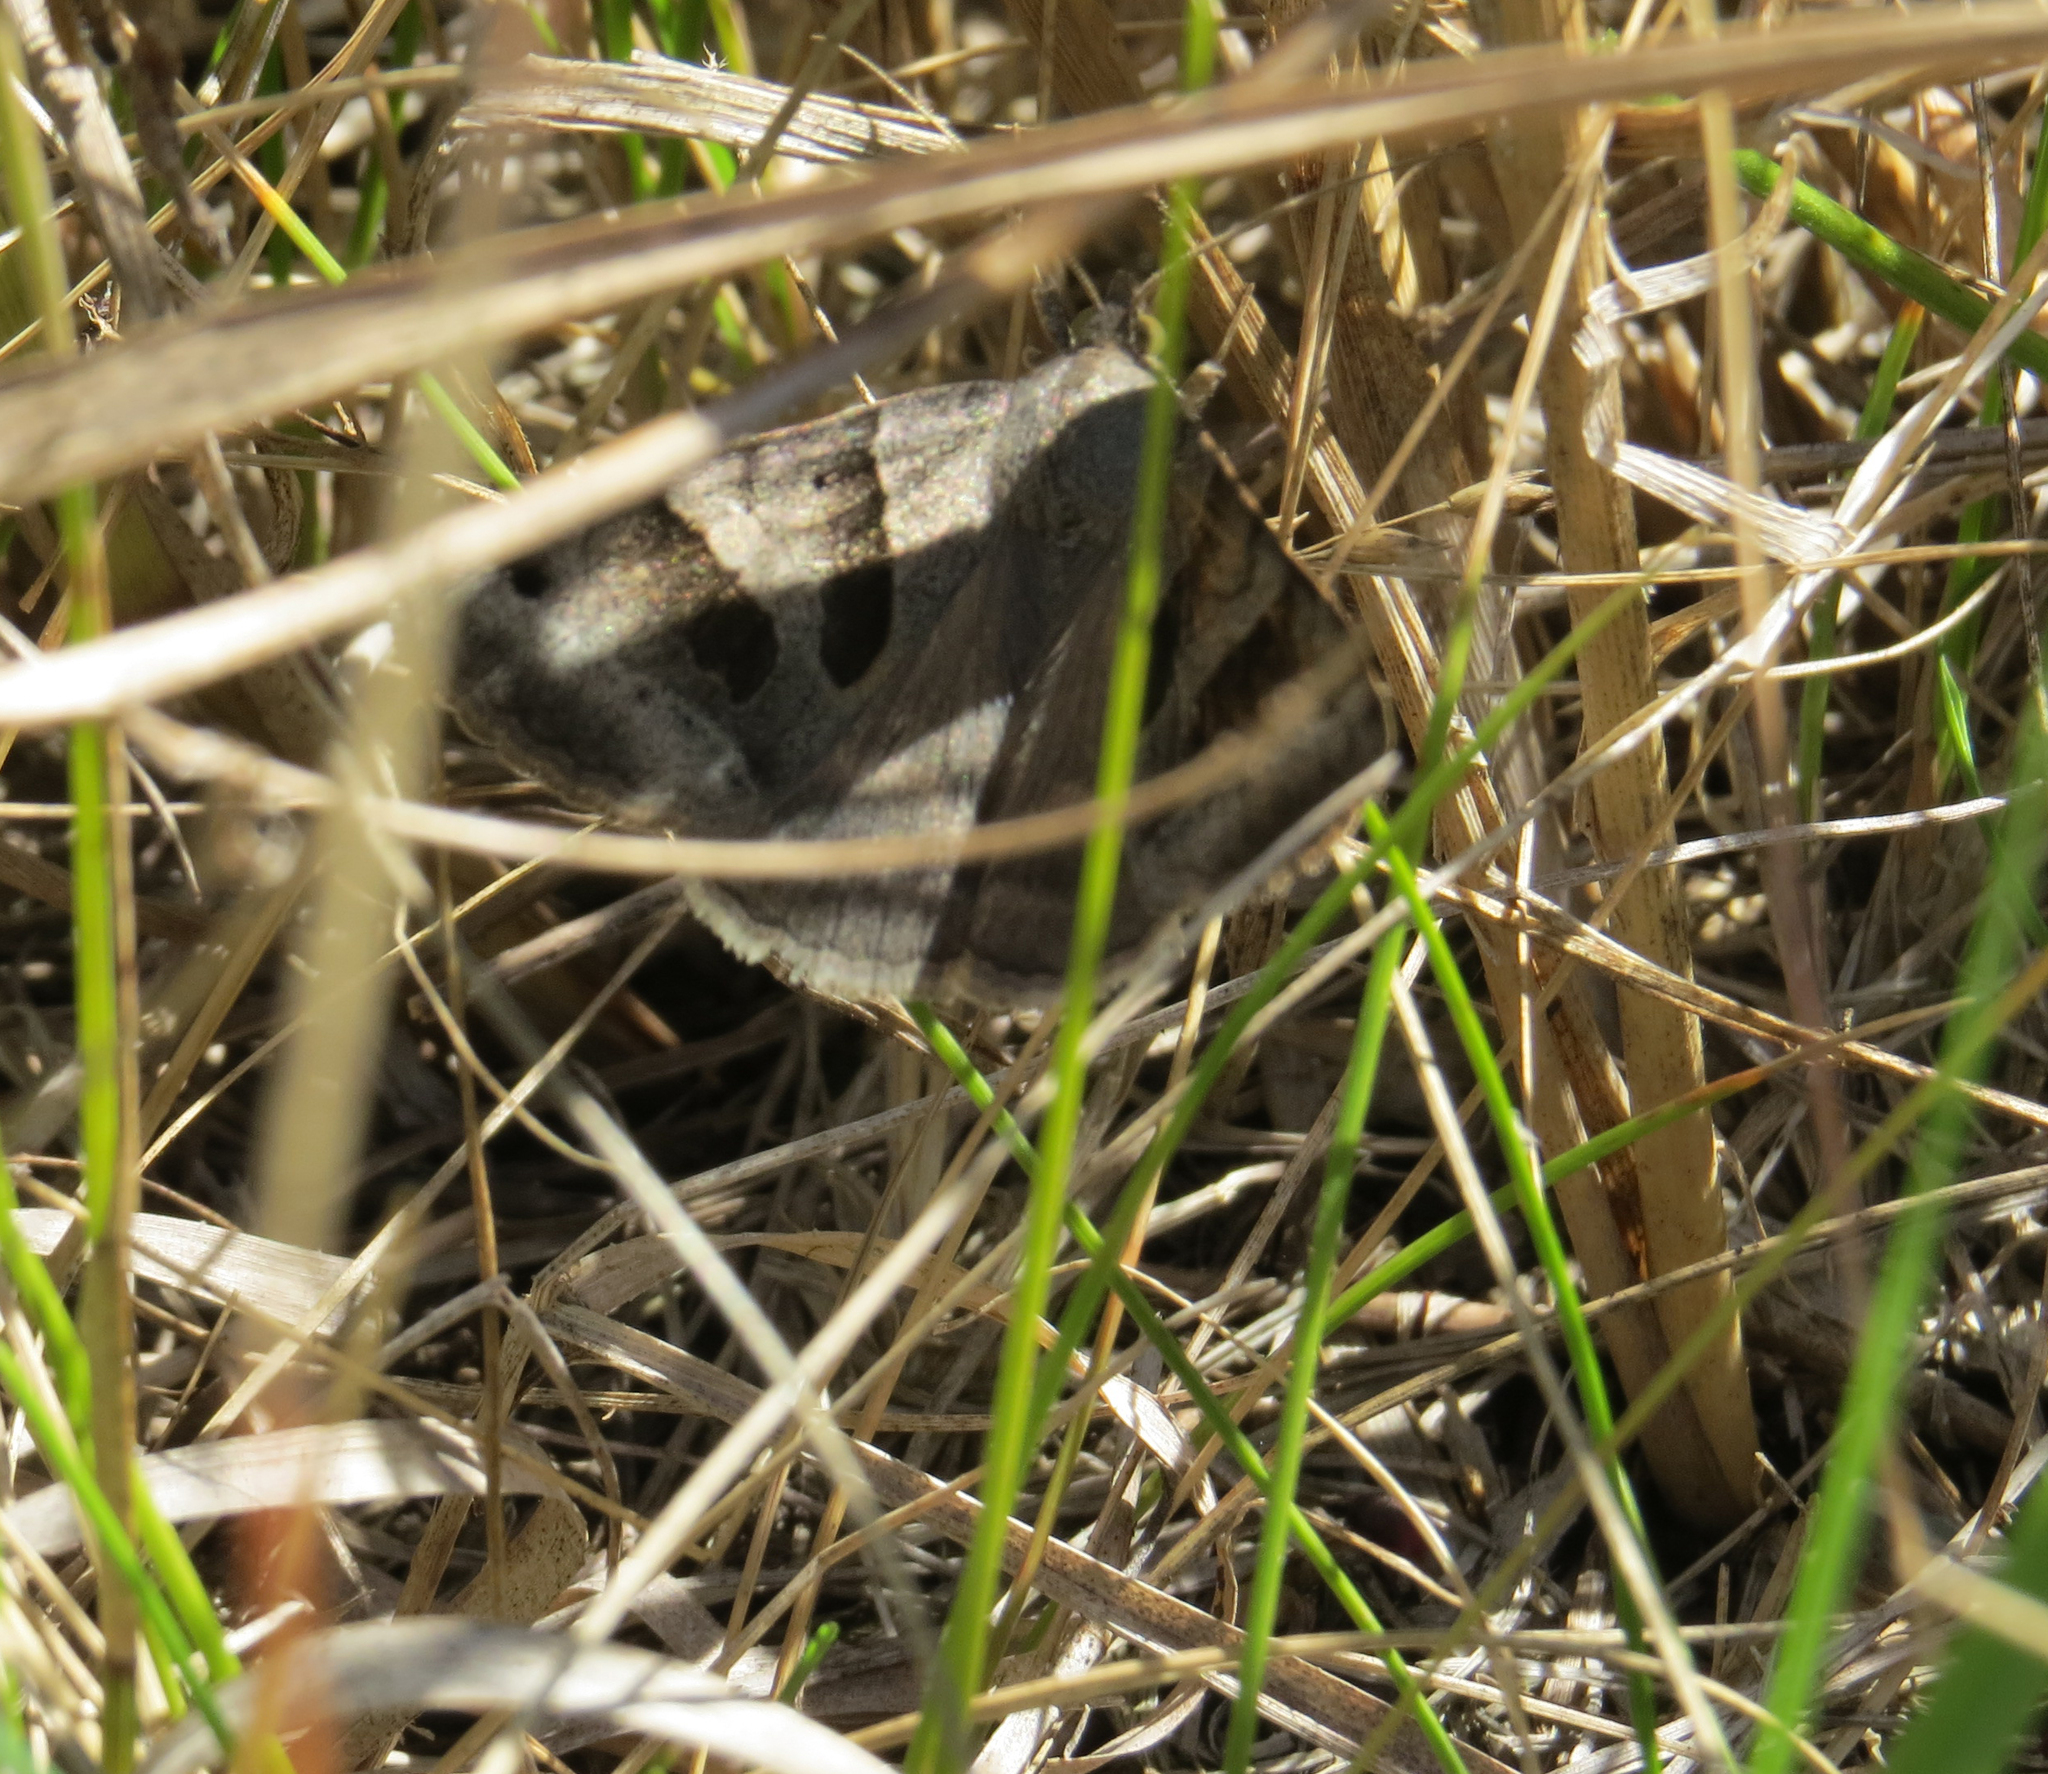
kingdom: Animalia
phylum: Arthropoda
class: Insecta
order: Lepidoptera
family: Erebidae
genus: Caenurgina
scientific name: Caenurgina erechtea
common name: Forage looper moth
